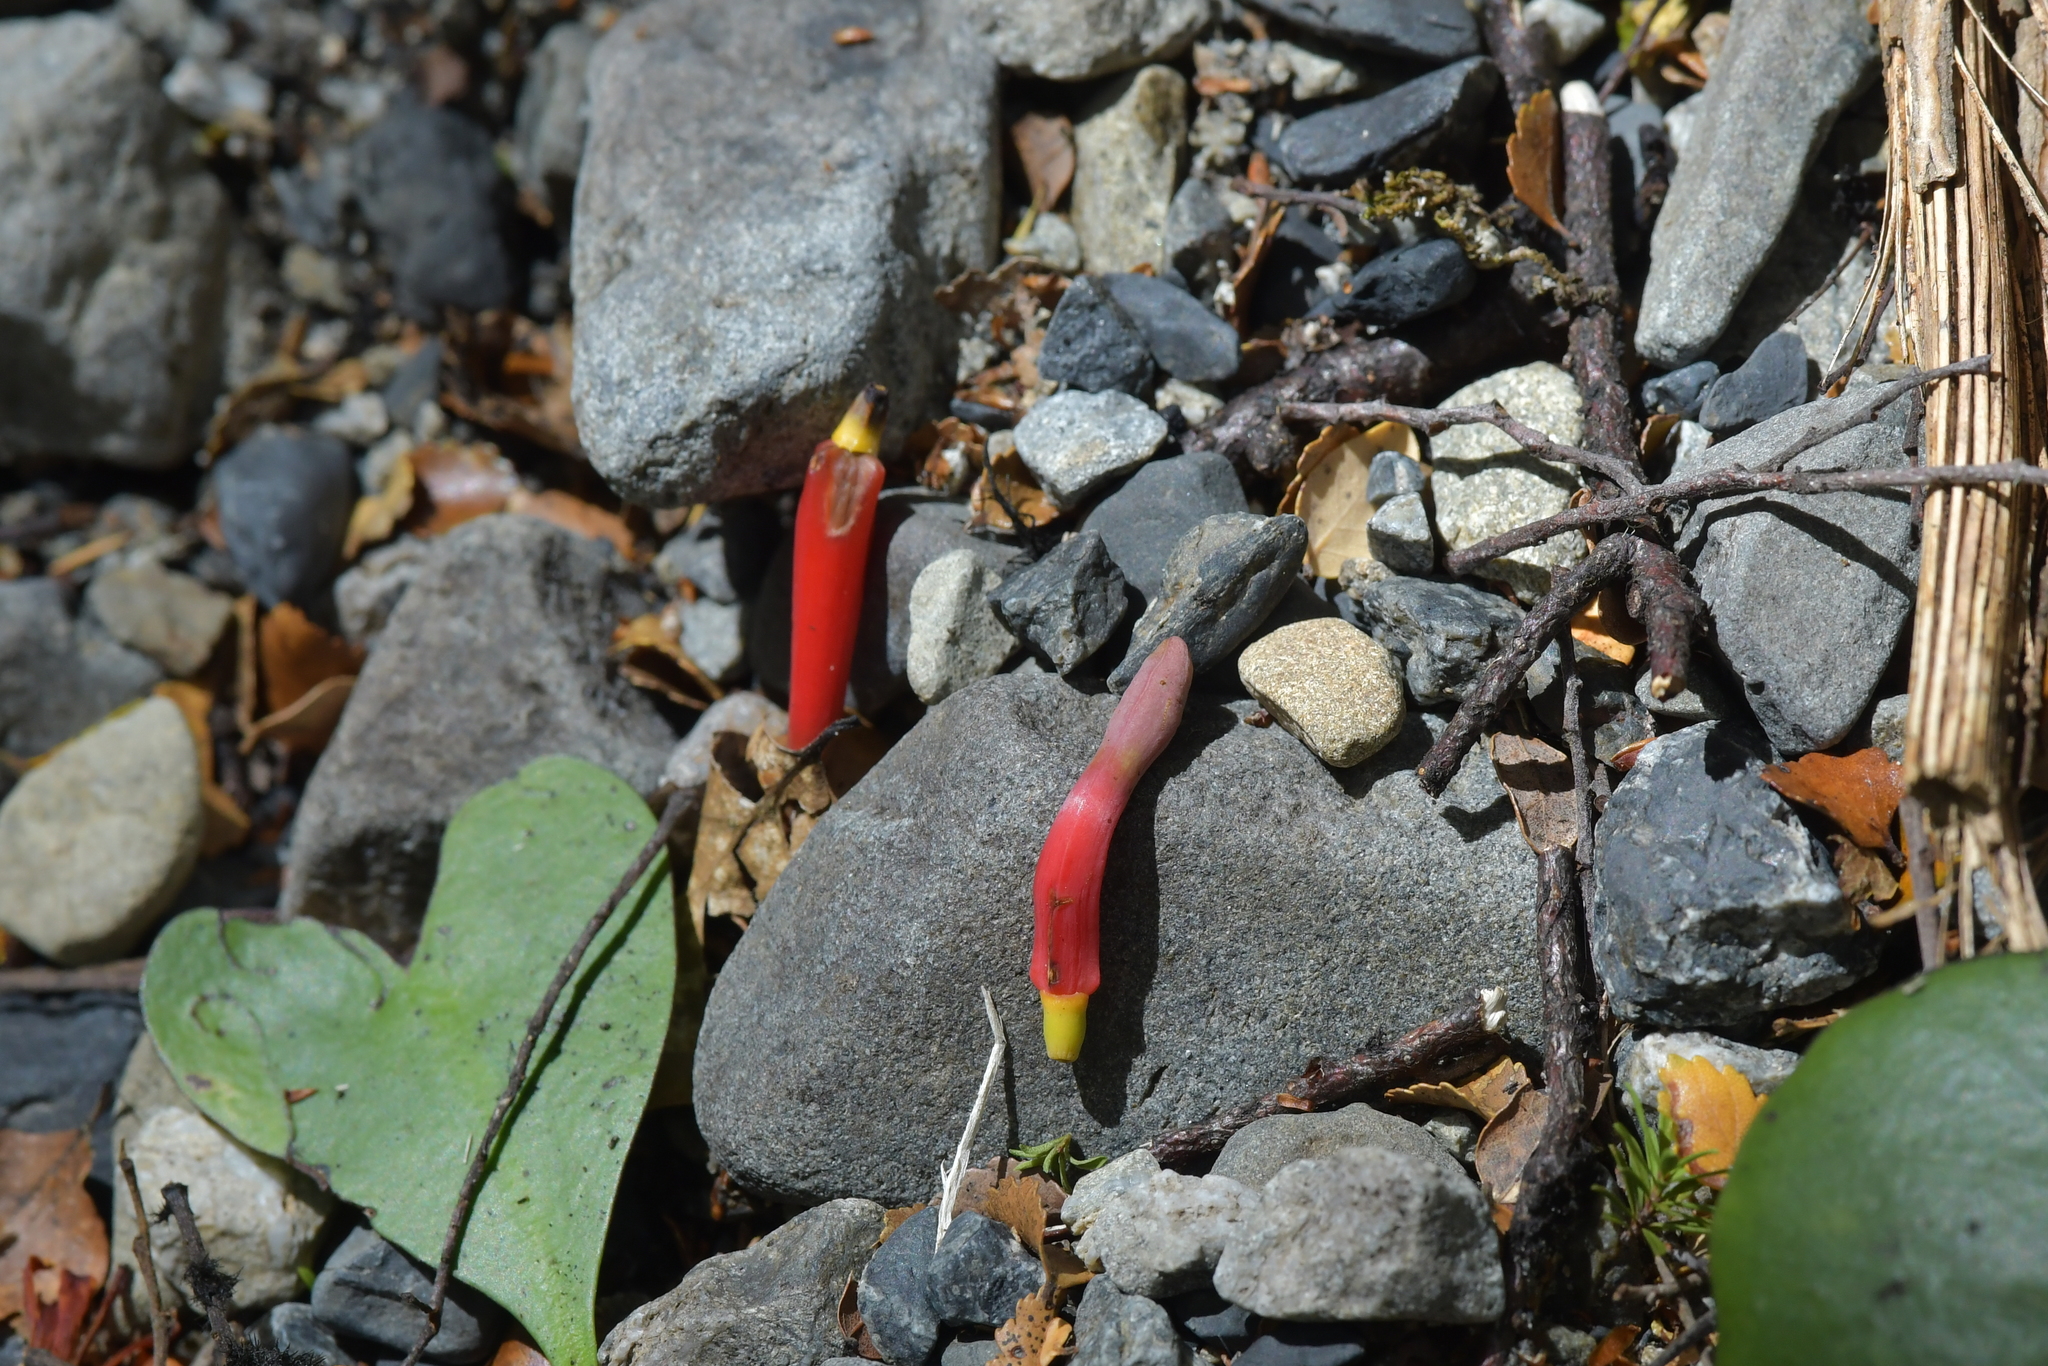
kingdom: Plantae
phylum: Tracheophyta
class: Magnoliopsida
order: Santalales
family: Loranthaceae
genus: Peraxilla
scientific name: Peraxilla colensoi
